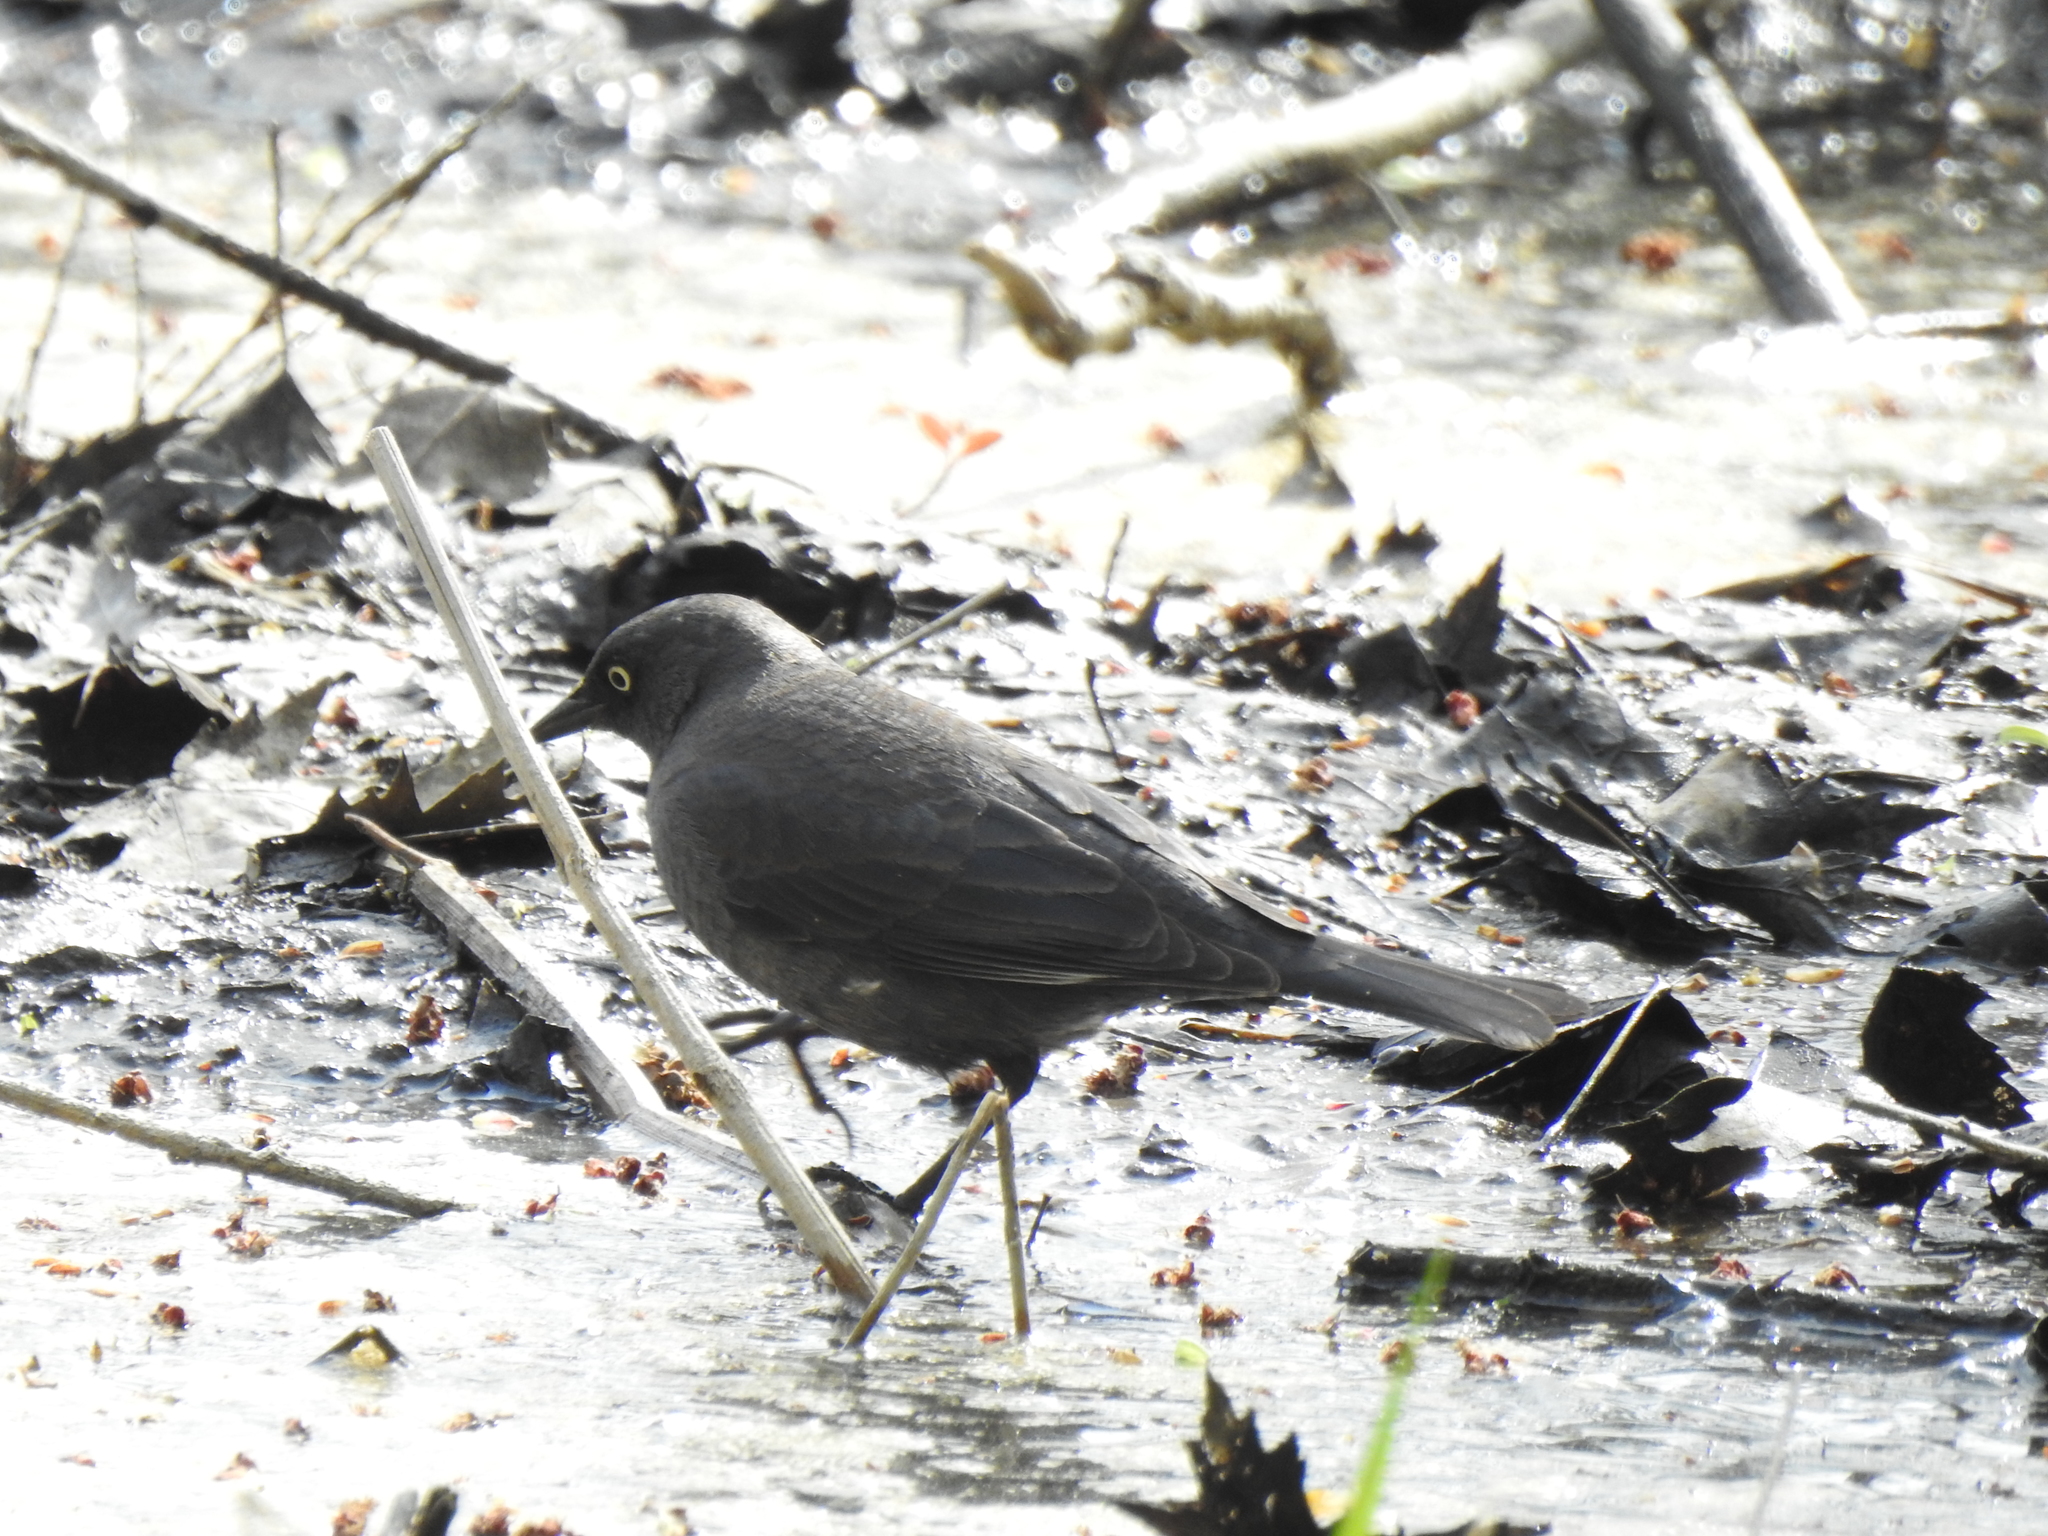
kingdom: Animalia
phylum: Chordata
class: Aves
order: Passeriformes
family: Icteridae
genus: Euphagus
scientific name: Euphagus carolinus
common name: Rusty blackbird
